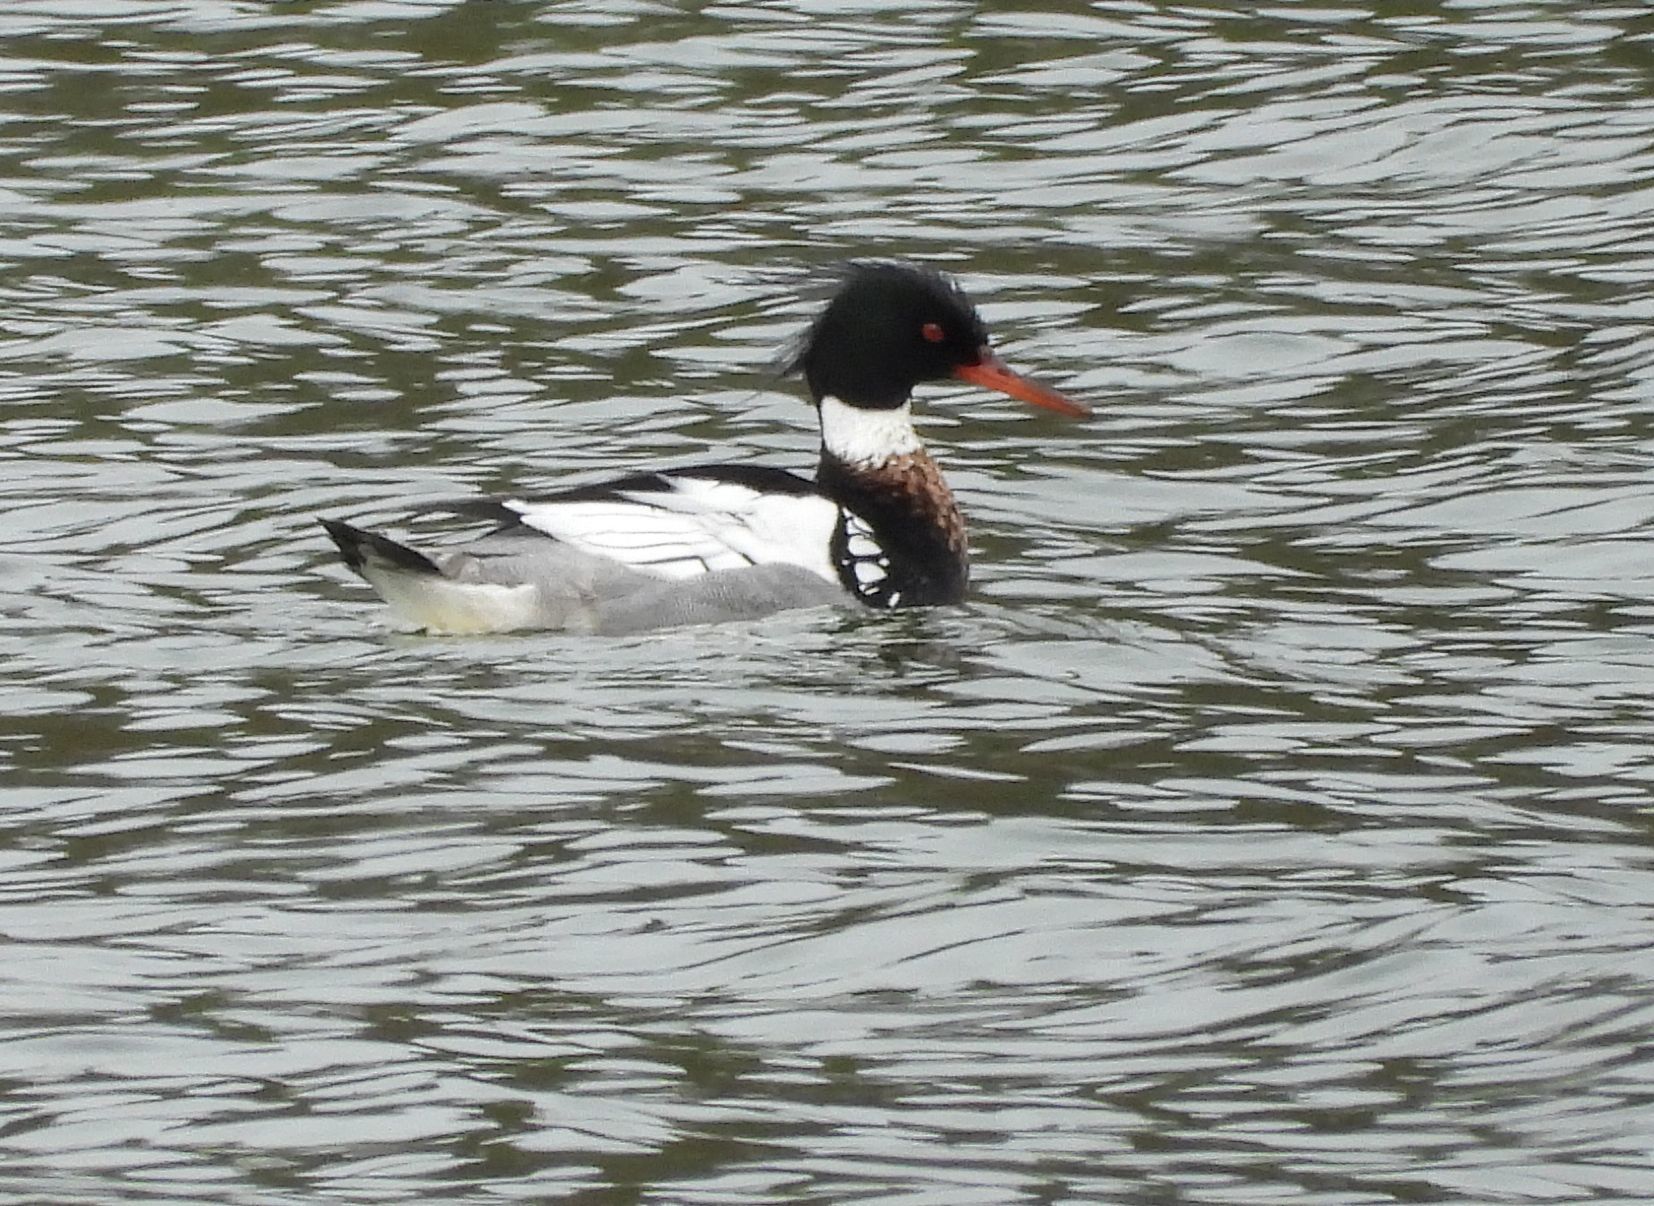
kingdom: Animalia
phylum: Chordata
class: Aves
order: Anseriformes
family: Anatidae
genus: Mergus
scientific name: Mergus serrator
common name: Red-breasted merganser
